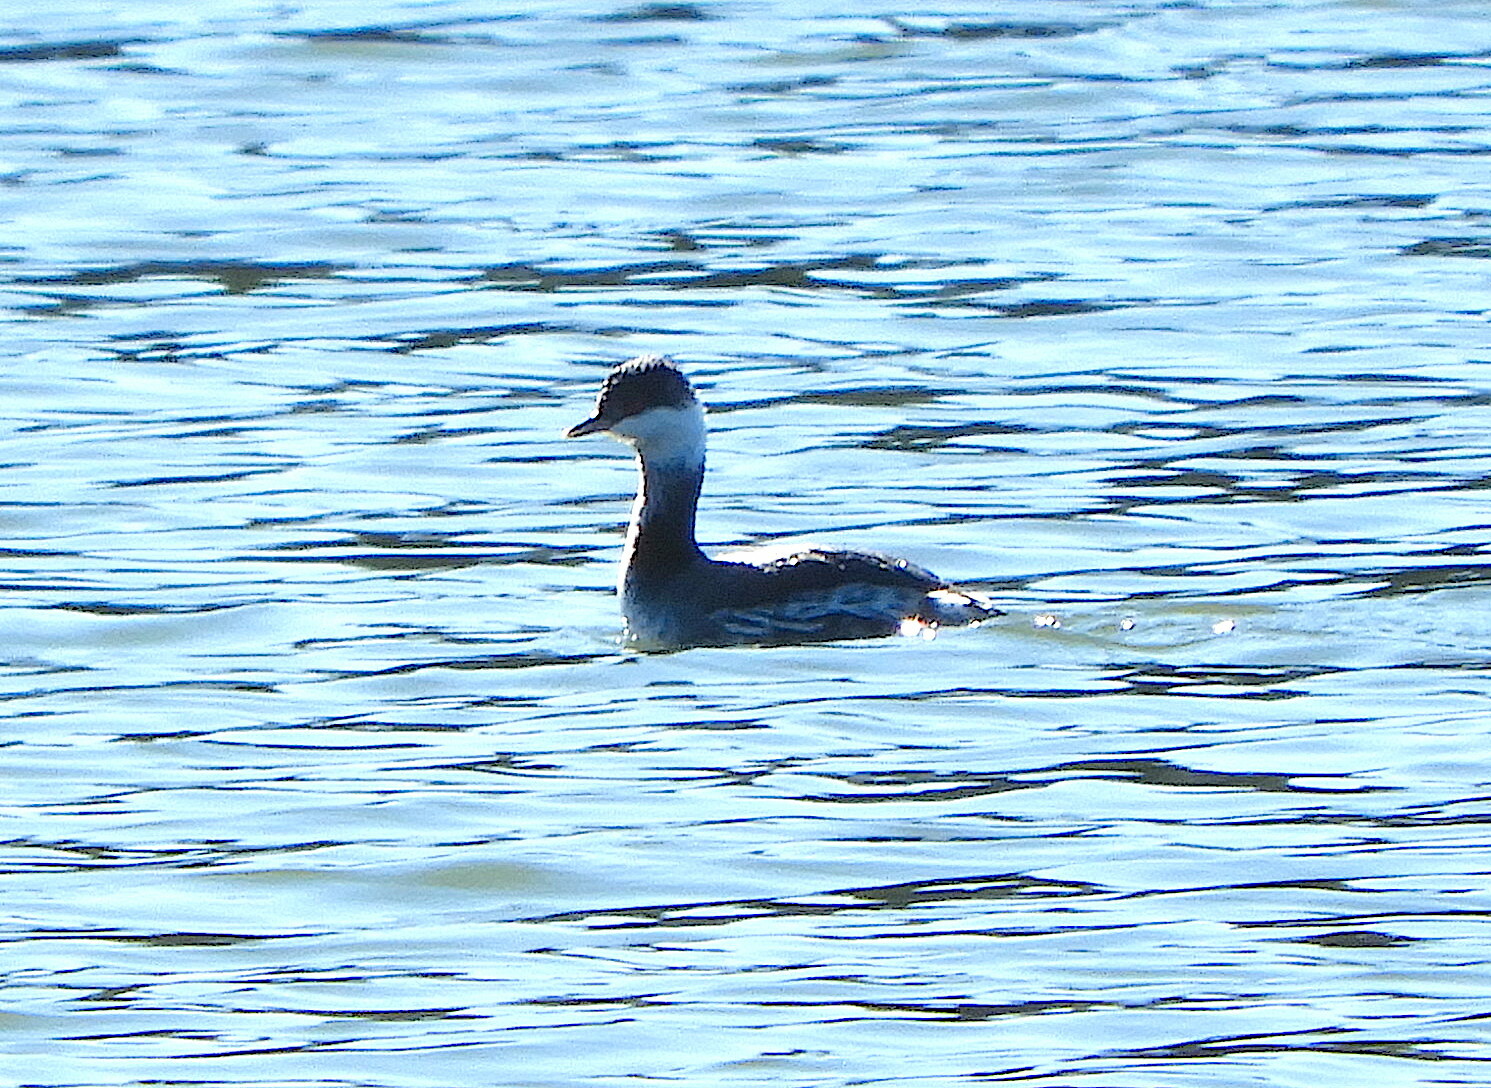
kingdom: Animalia
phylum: Chordata
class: Aves
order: Podicipediformes
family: Podicipedidae
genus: Podiceps
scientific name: Podiceps auritus
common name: Horned grebe
